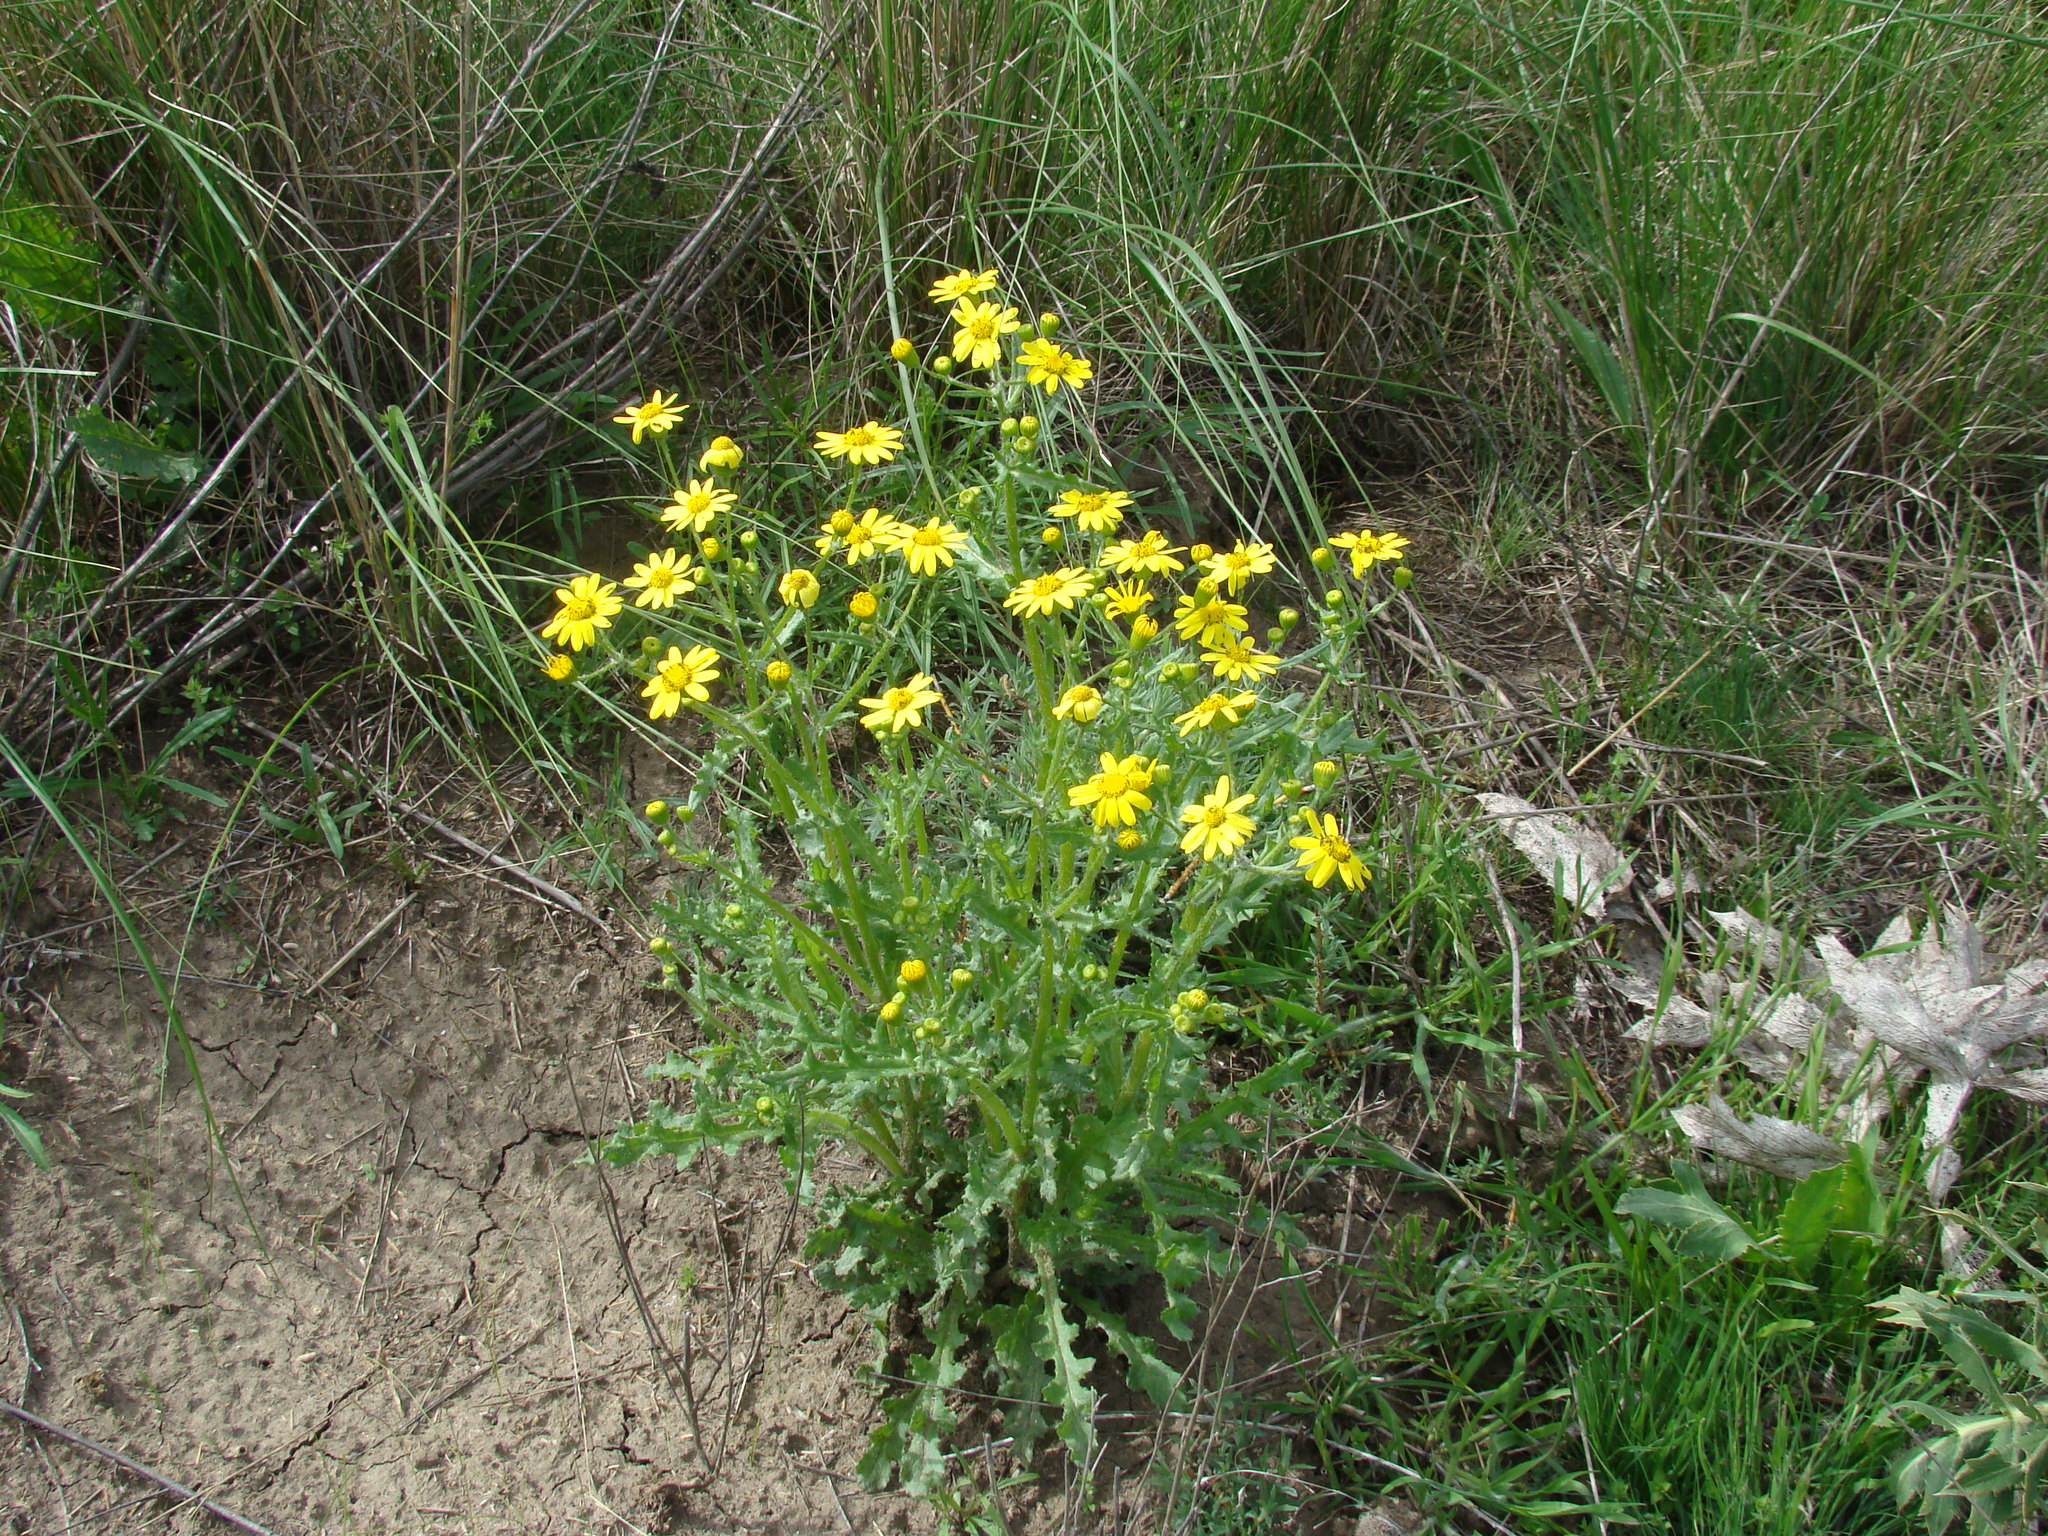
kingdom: Plantae
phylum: Tracheophyta
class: Magnoliopsida
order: Asterales
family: Asteraceae
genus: Senecio
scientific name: Senecio vernalis
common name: Eastern groundsel
